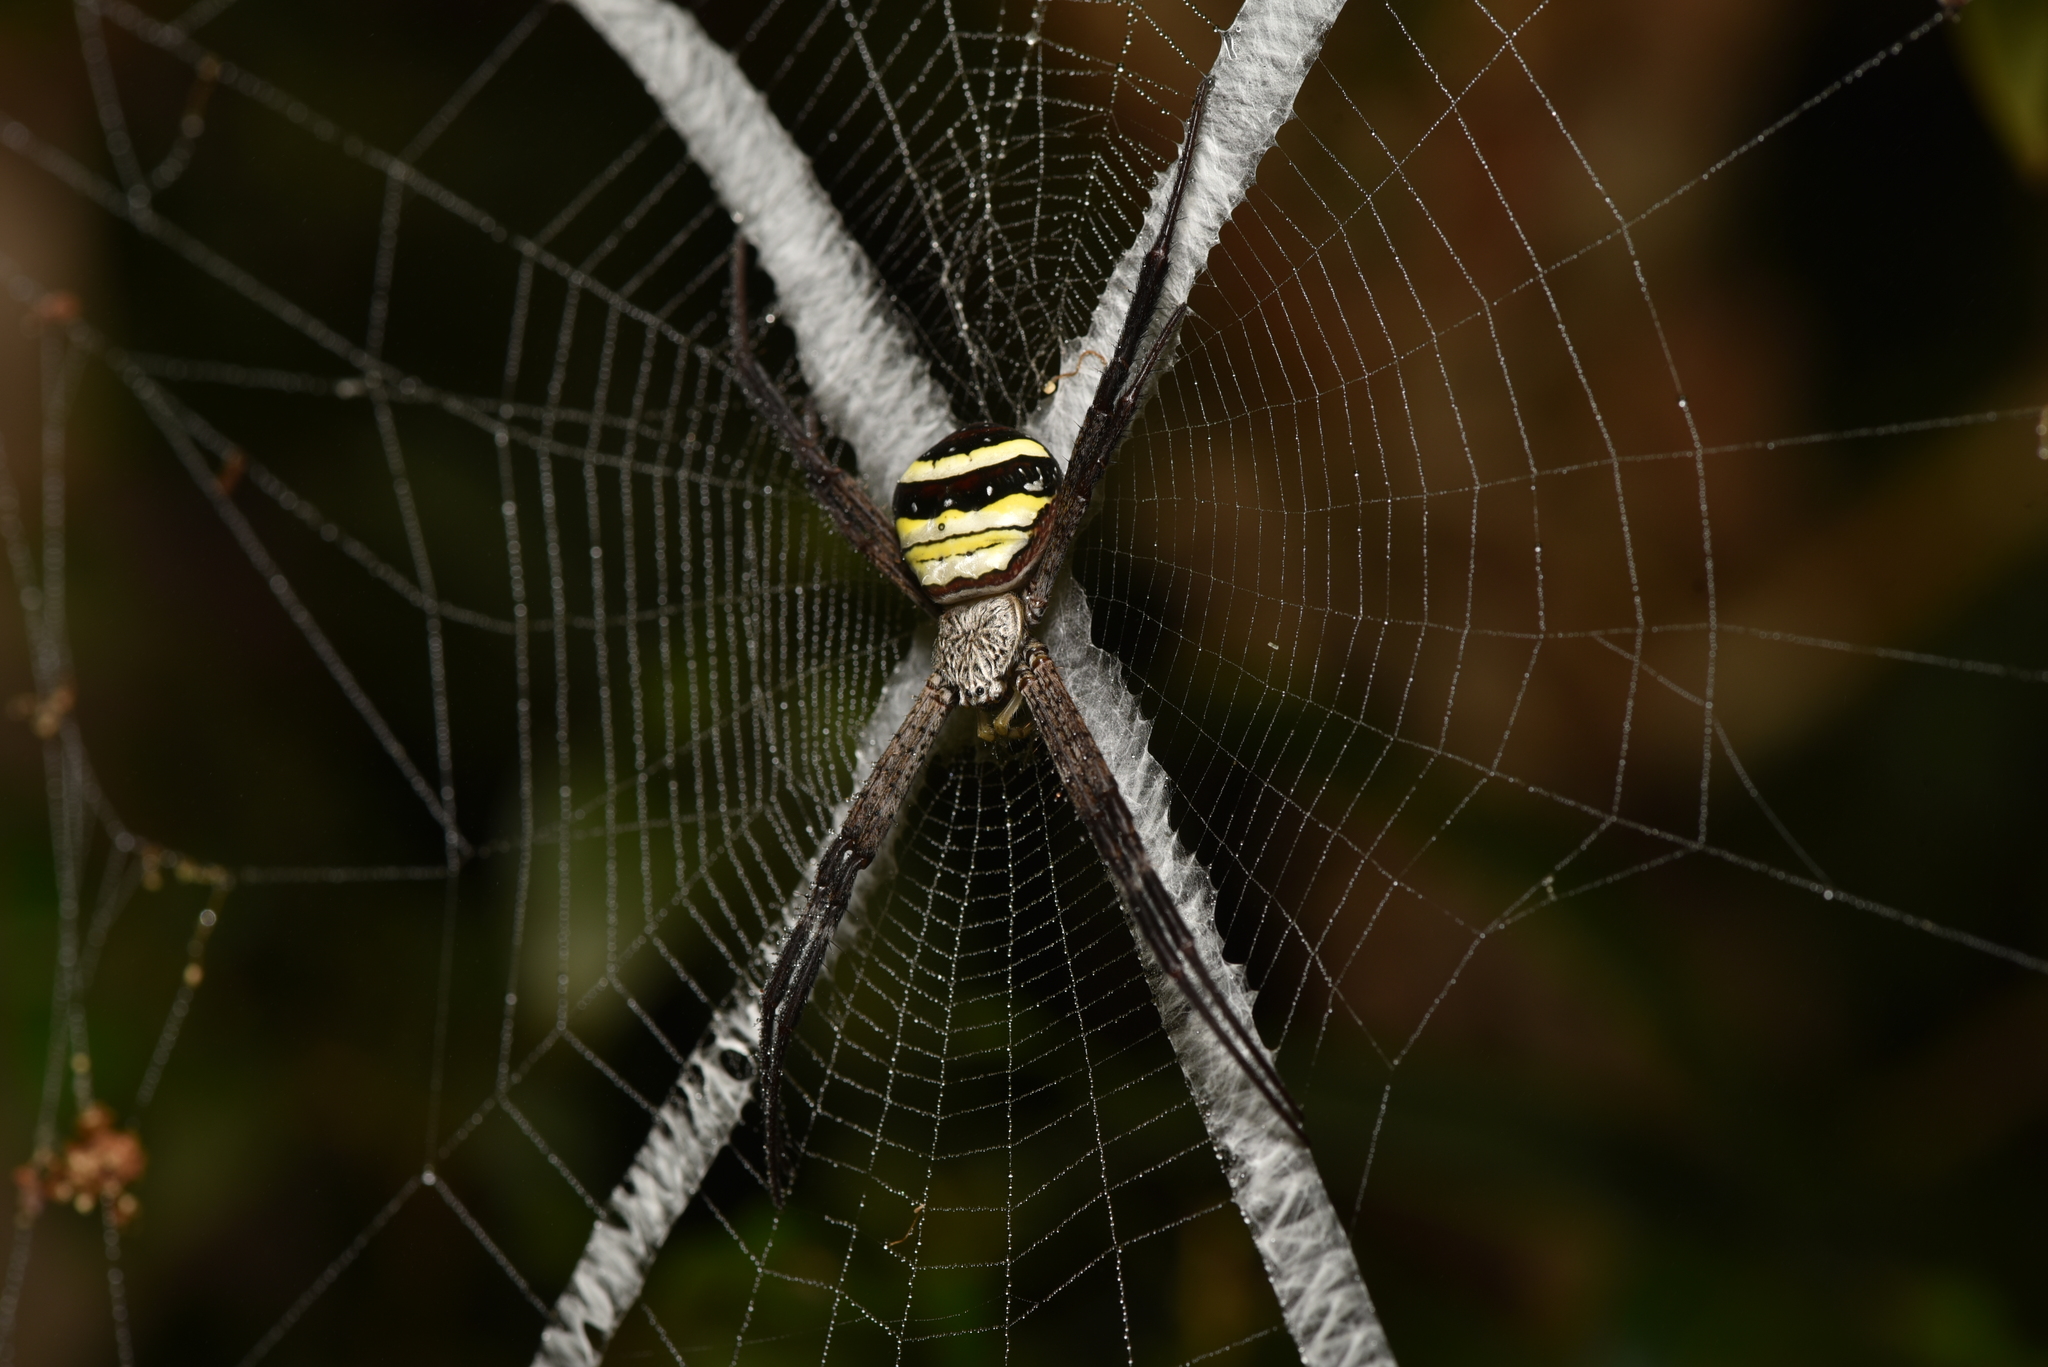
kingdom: Animalia
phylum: Arthropoda
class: Arachnida
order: Araneae
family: Araneidae
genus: Argiope
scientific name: Argiope aetheroides
